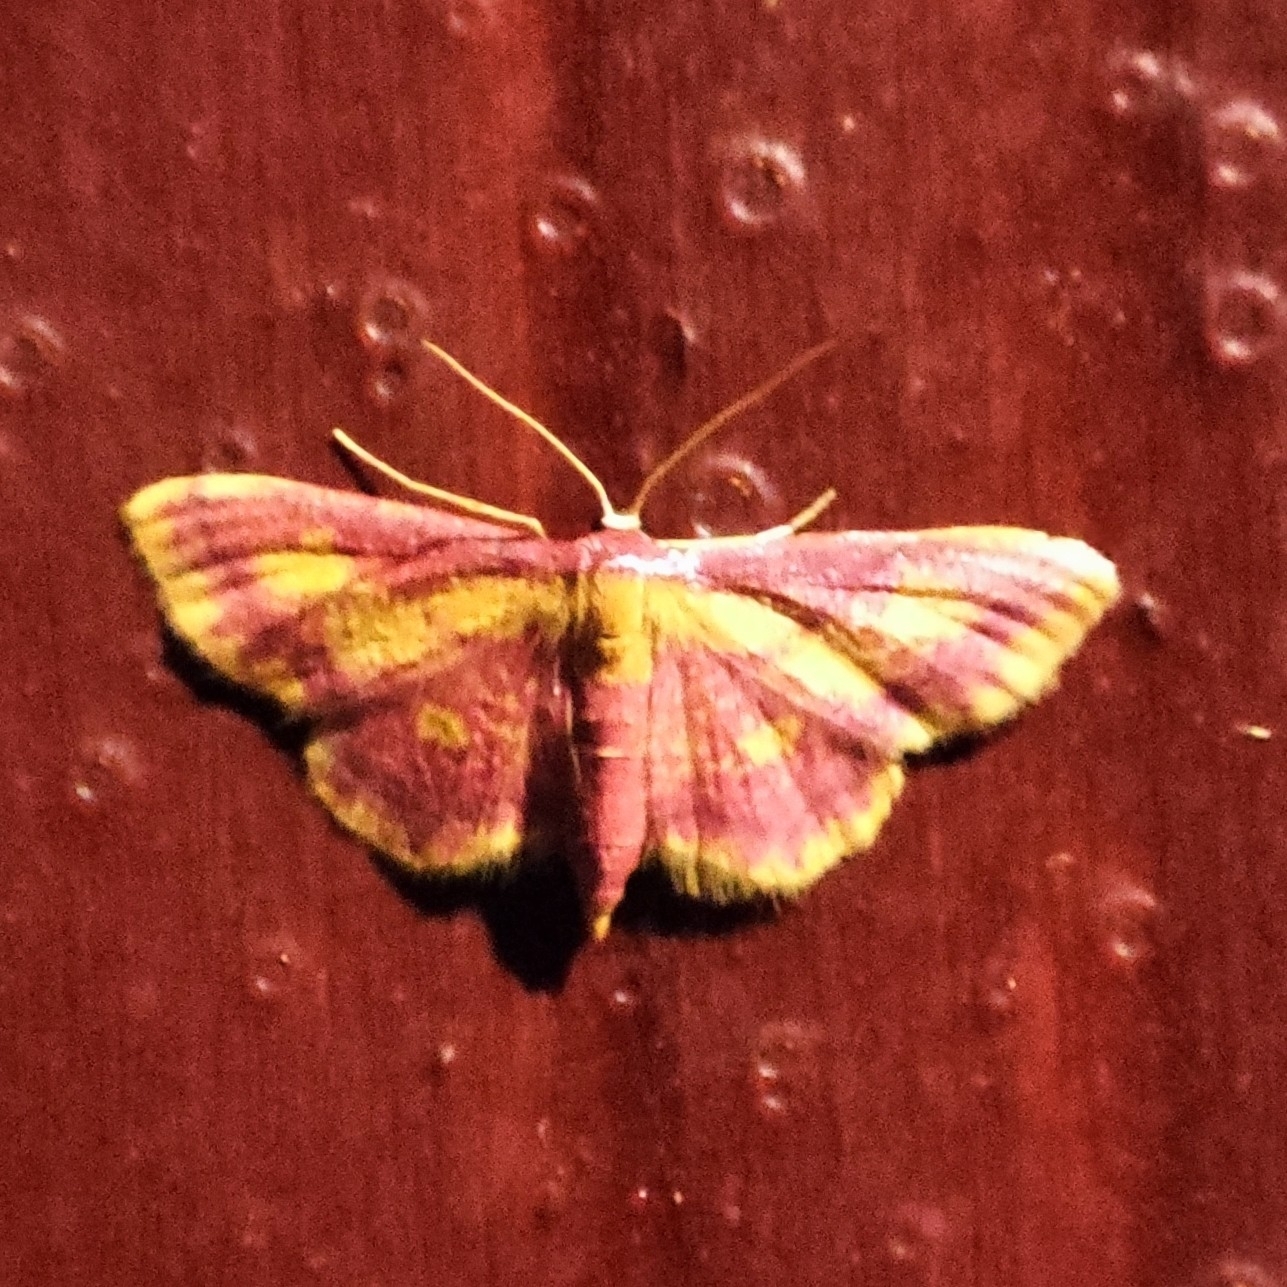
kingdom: Animalia
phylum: Arthropoda
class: Insecta
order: Lepidoptera
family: Geometridae
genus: Idaea
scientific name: Idaea muricata
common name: Purple-bordered gold
